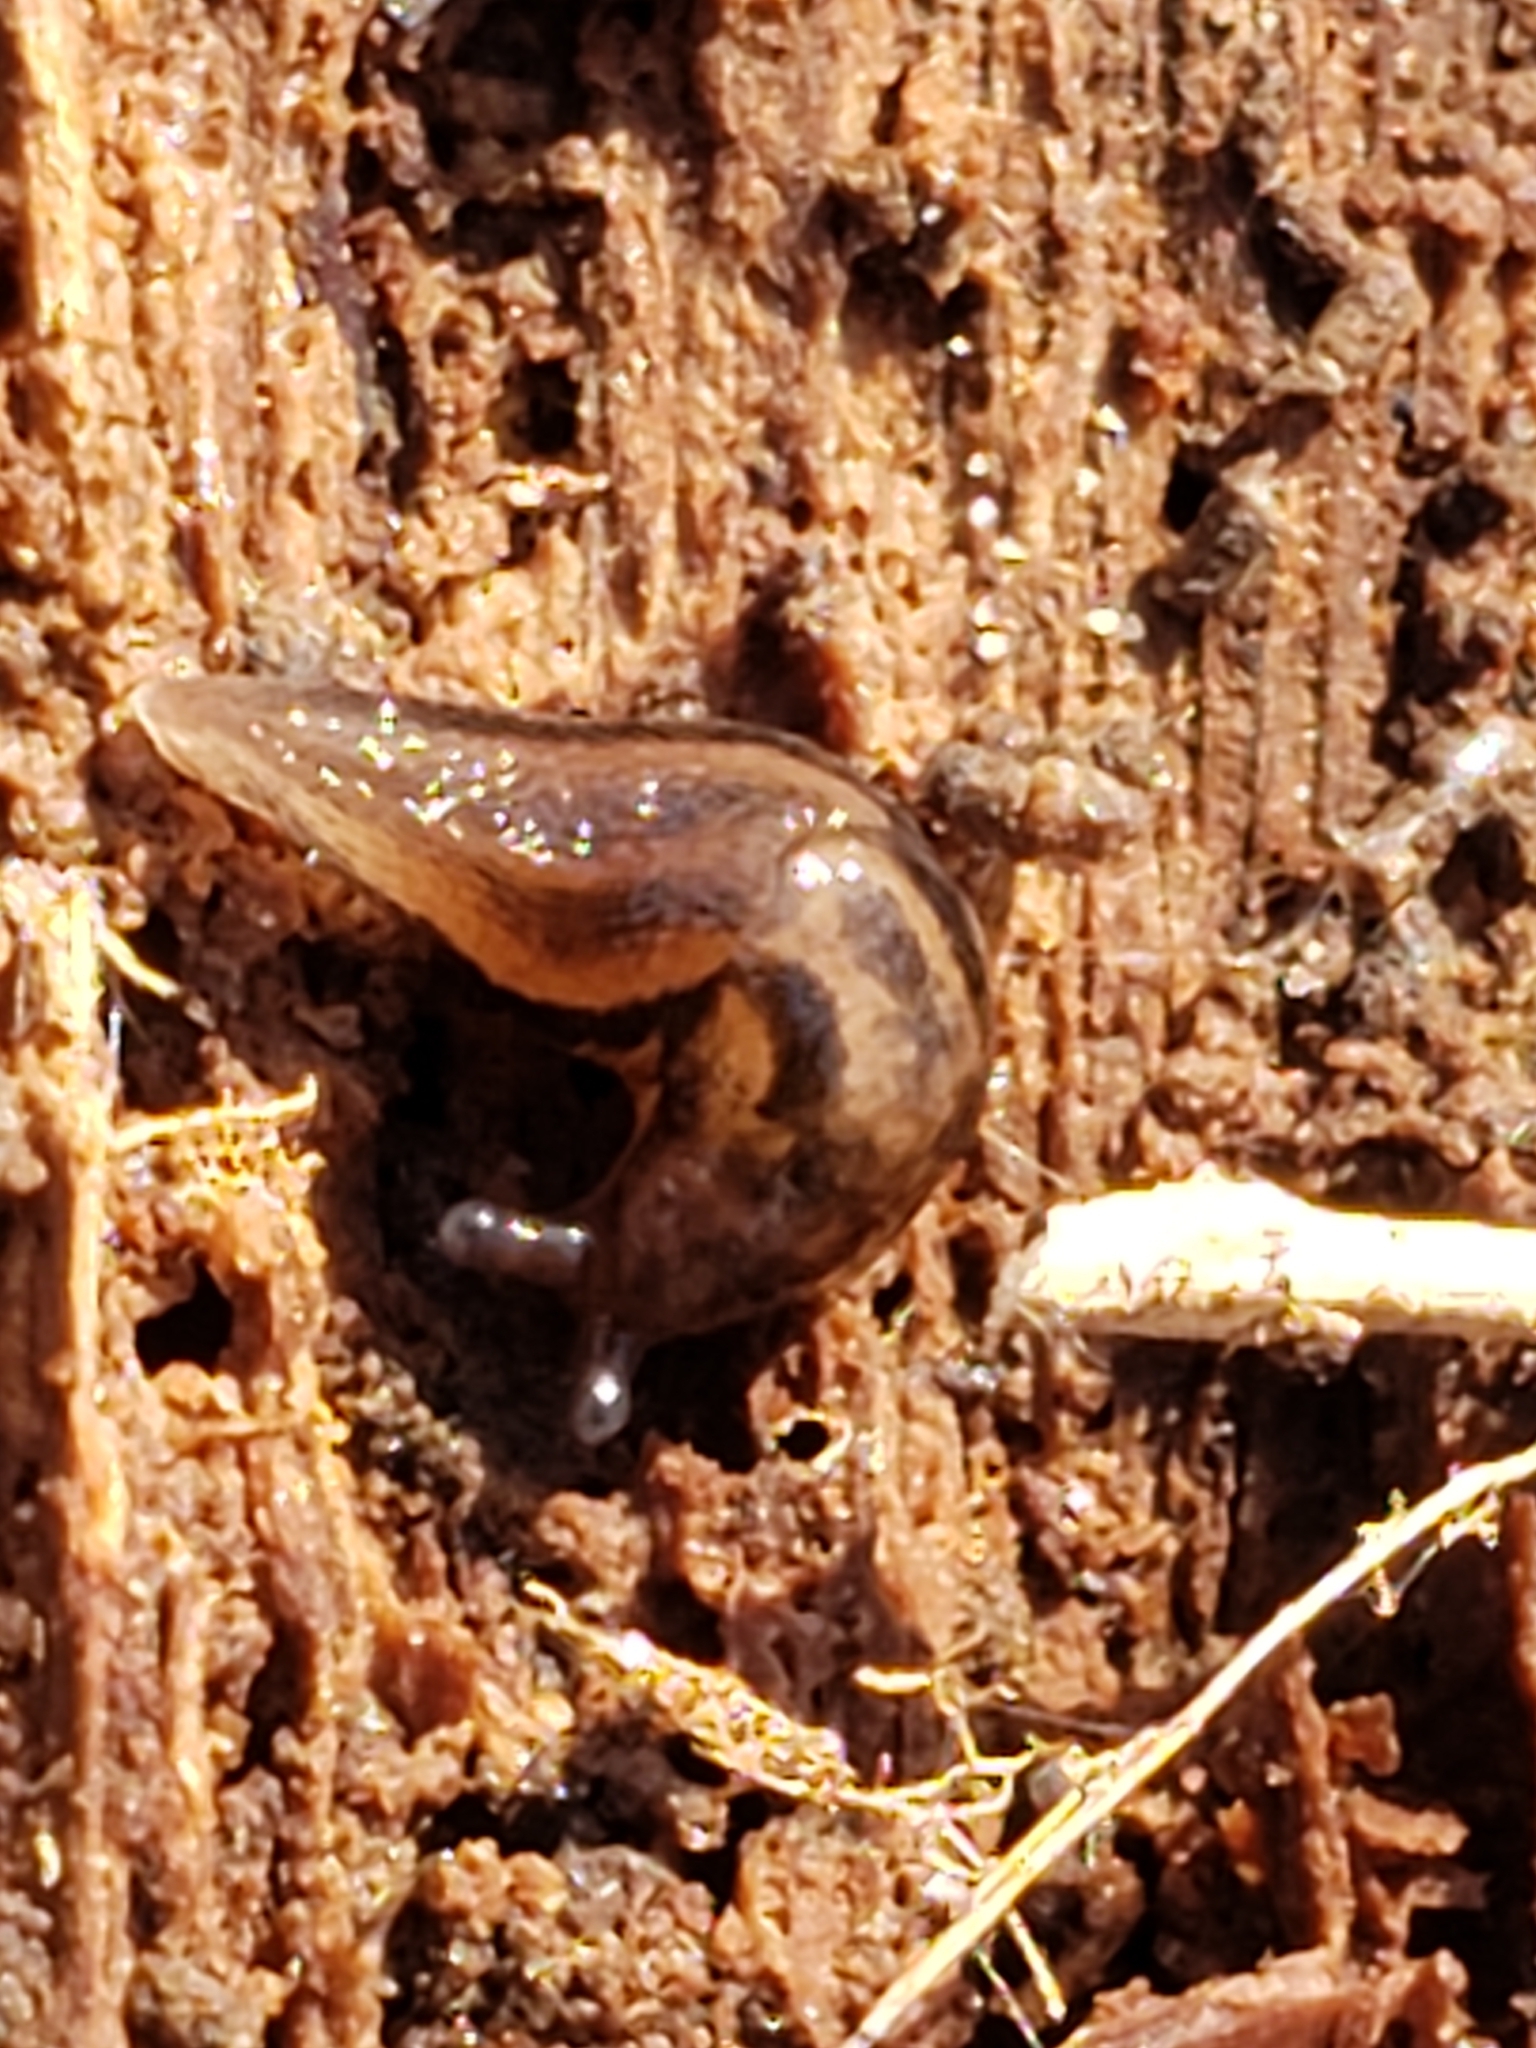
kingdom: Animalia
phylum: Mollusca
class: Gastropoda
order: Stylommatophora
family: Limacidae
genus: Limax
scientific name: Limax maximus
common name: Great grey slug
